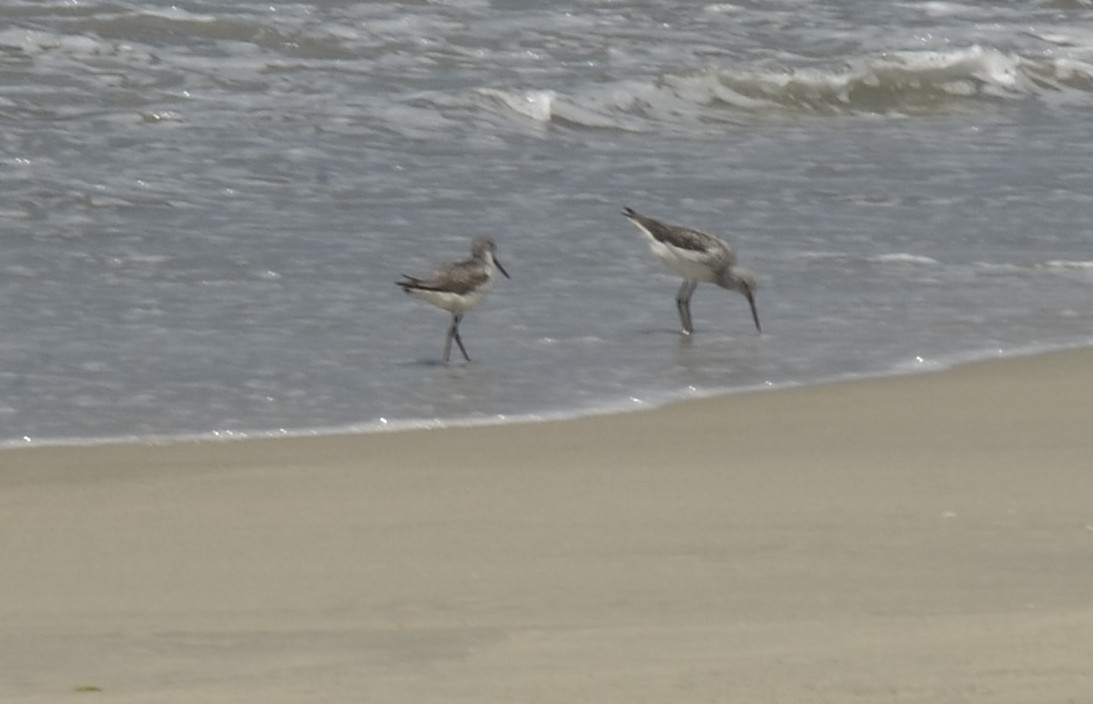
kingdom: Animalia
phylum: Chordata
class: Aves
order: Charadriiformes
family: Scolopacidae
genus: Tringa
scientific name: Tringa nebularia
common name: Common greenshank
